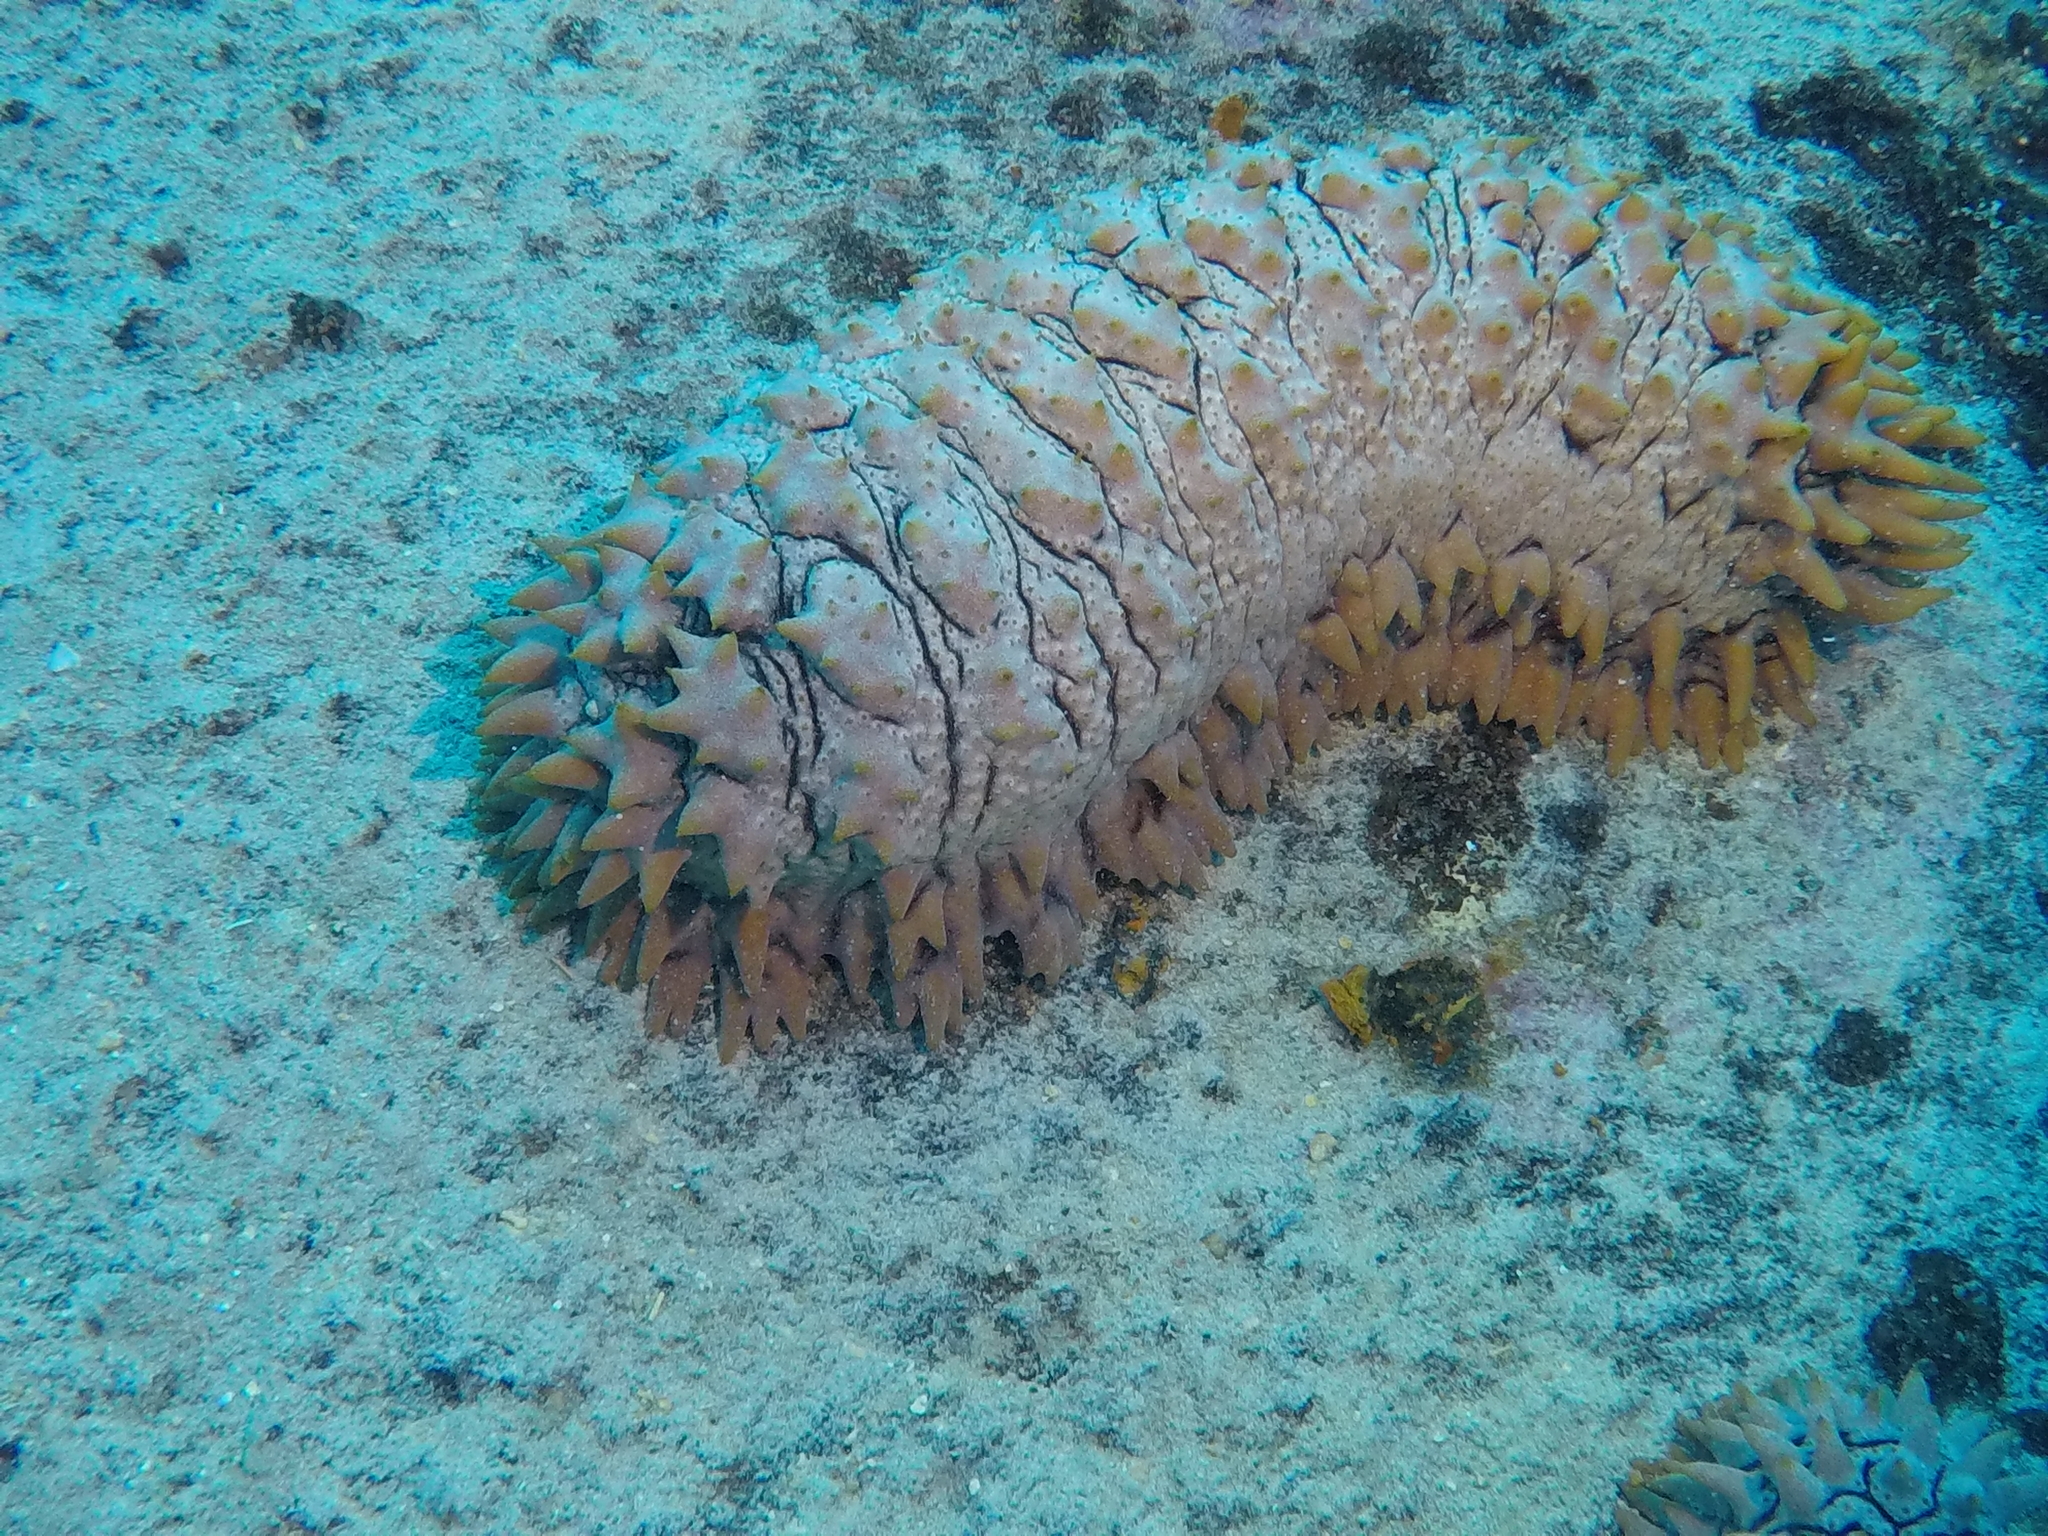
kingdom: Animalia
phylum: Echinodermata
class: Holothuroidea
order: Synallactida
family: Stichopodidae
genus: Thelenota
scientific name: Thelenota ananas
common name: Prickly redfish
